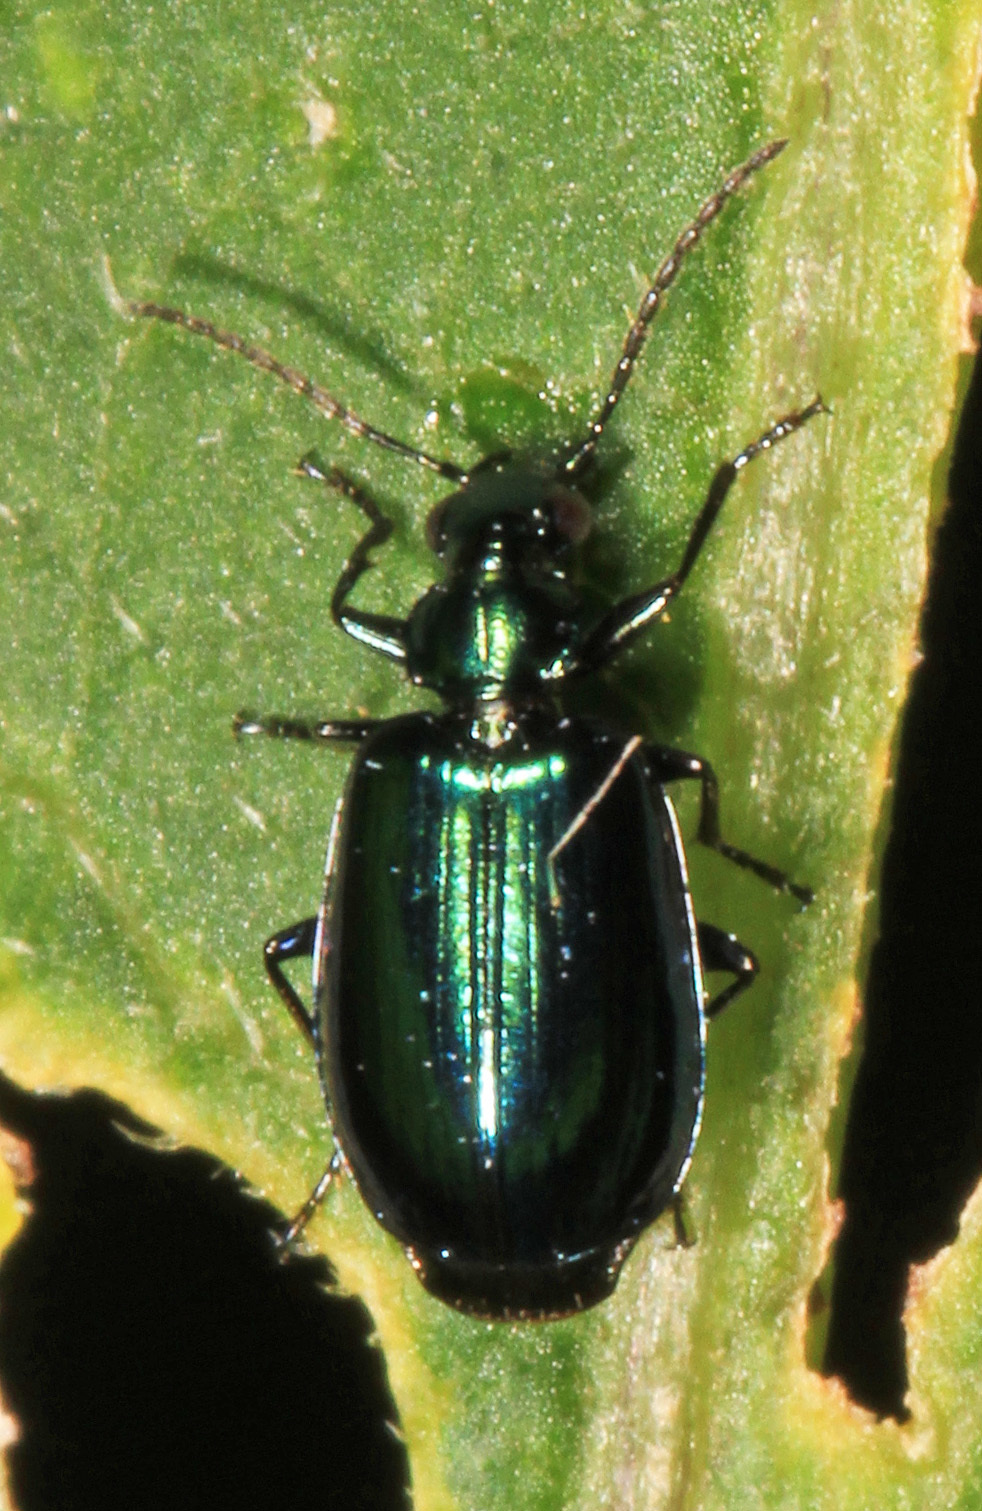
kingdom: Animalia
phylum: Arthropoda
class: Insecta
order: Coleoptera
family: Carabidae
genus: Lebia
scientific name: Lebia viridis
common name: Flower lebia beetle
